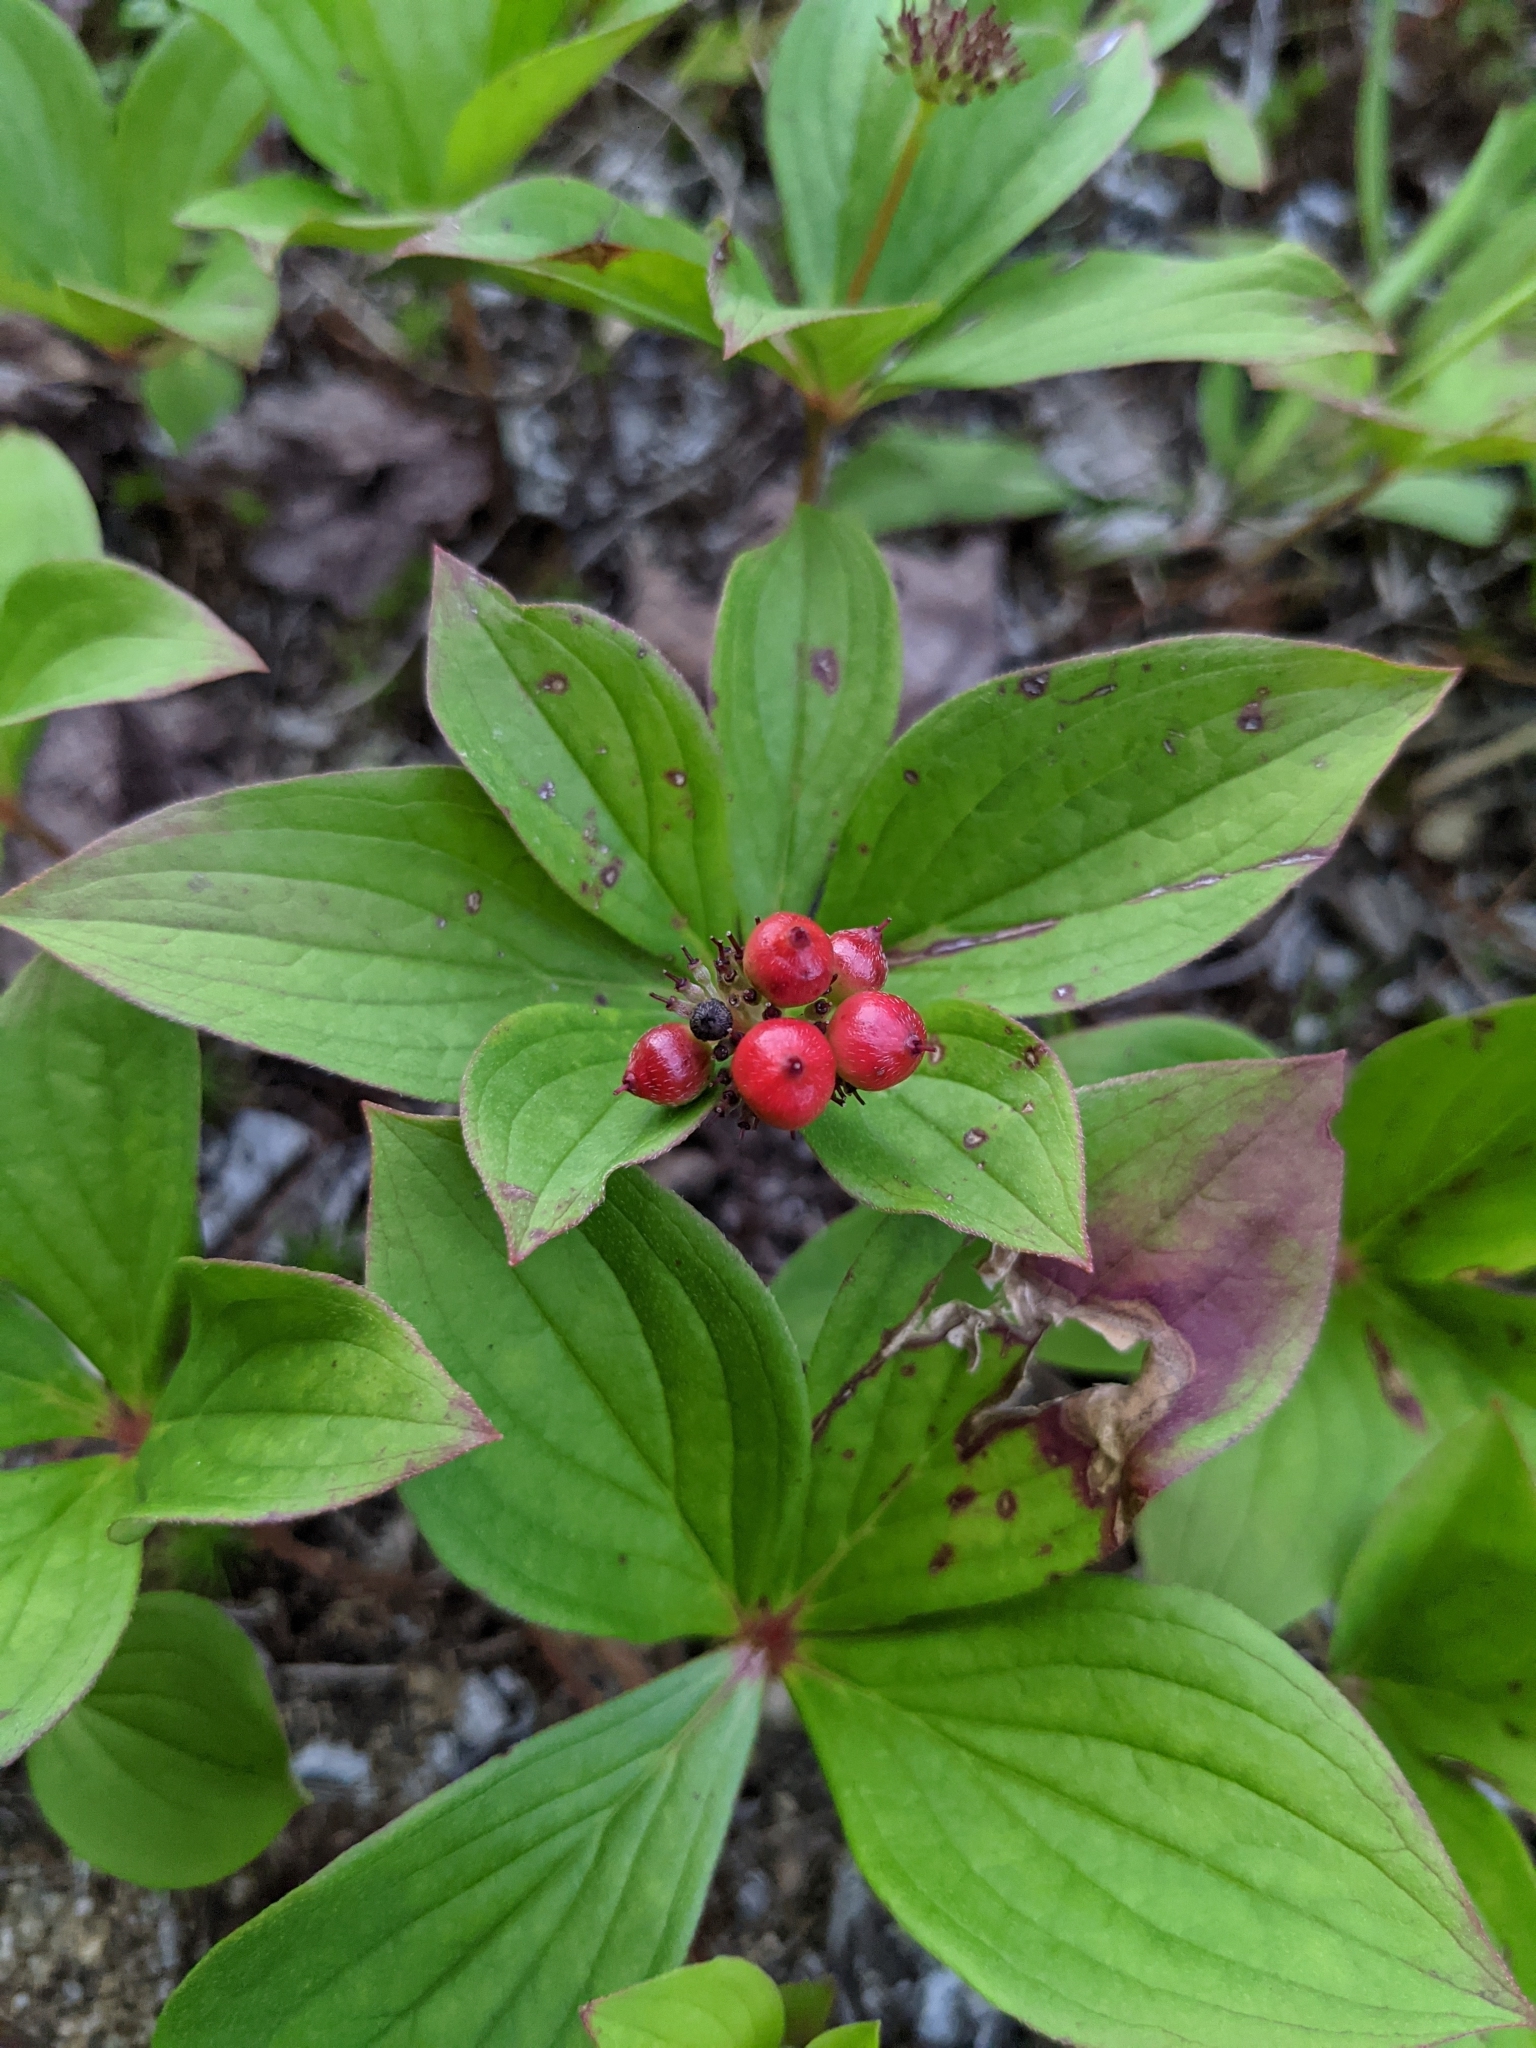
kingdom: Plantae
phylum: Tracheophyta
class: Magnoliopsida
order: Cornales
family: Cornaceae
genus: Cornus
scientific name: Cornus canadensis
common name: Creeping dogwood
